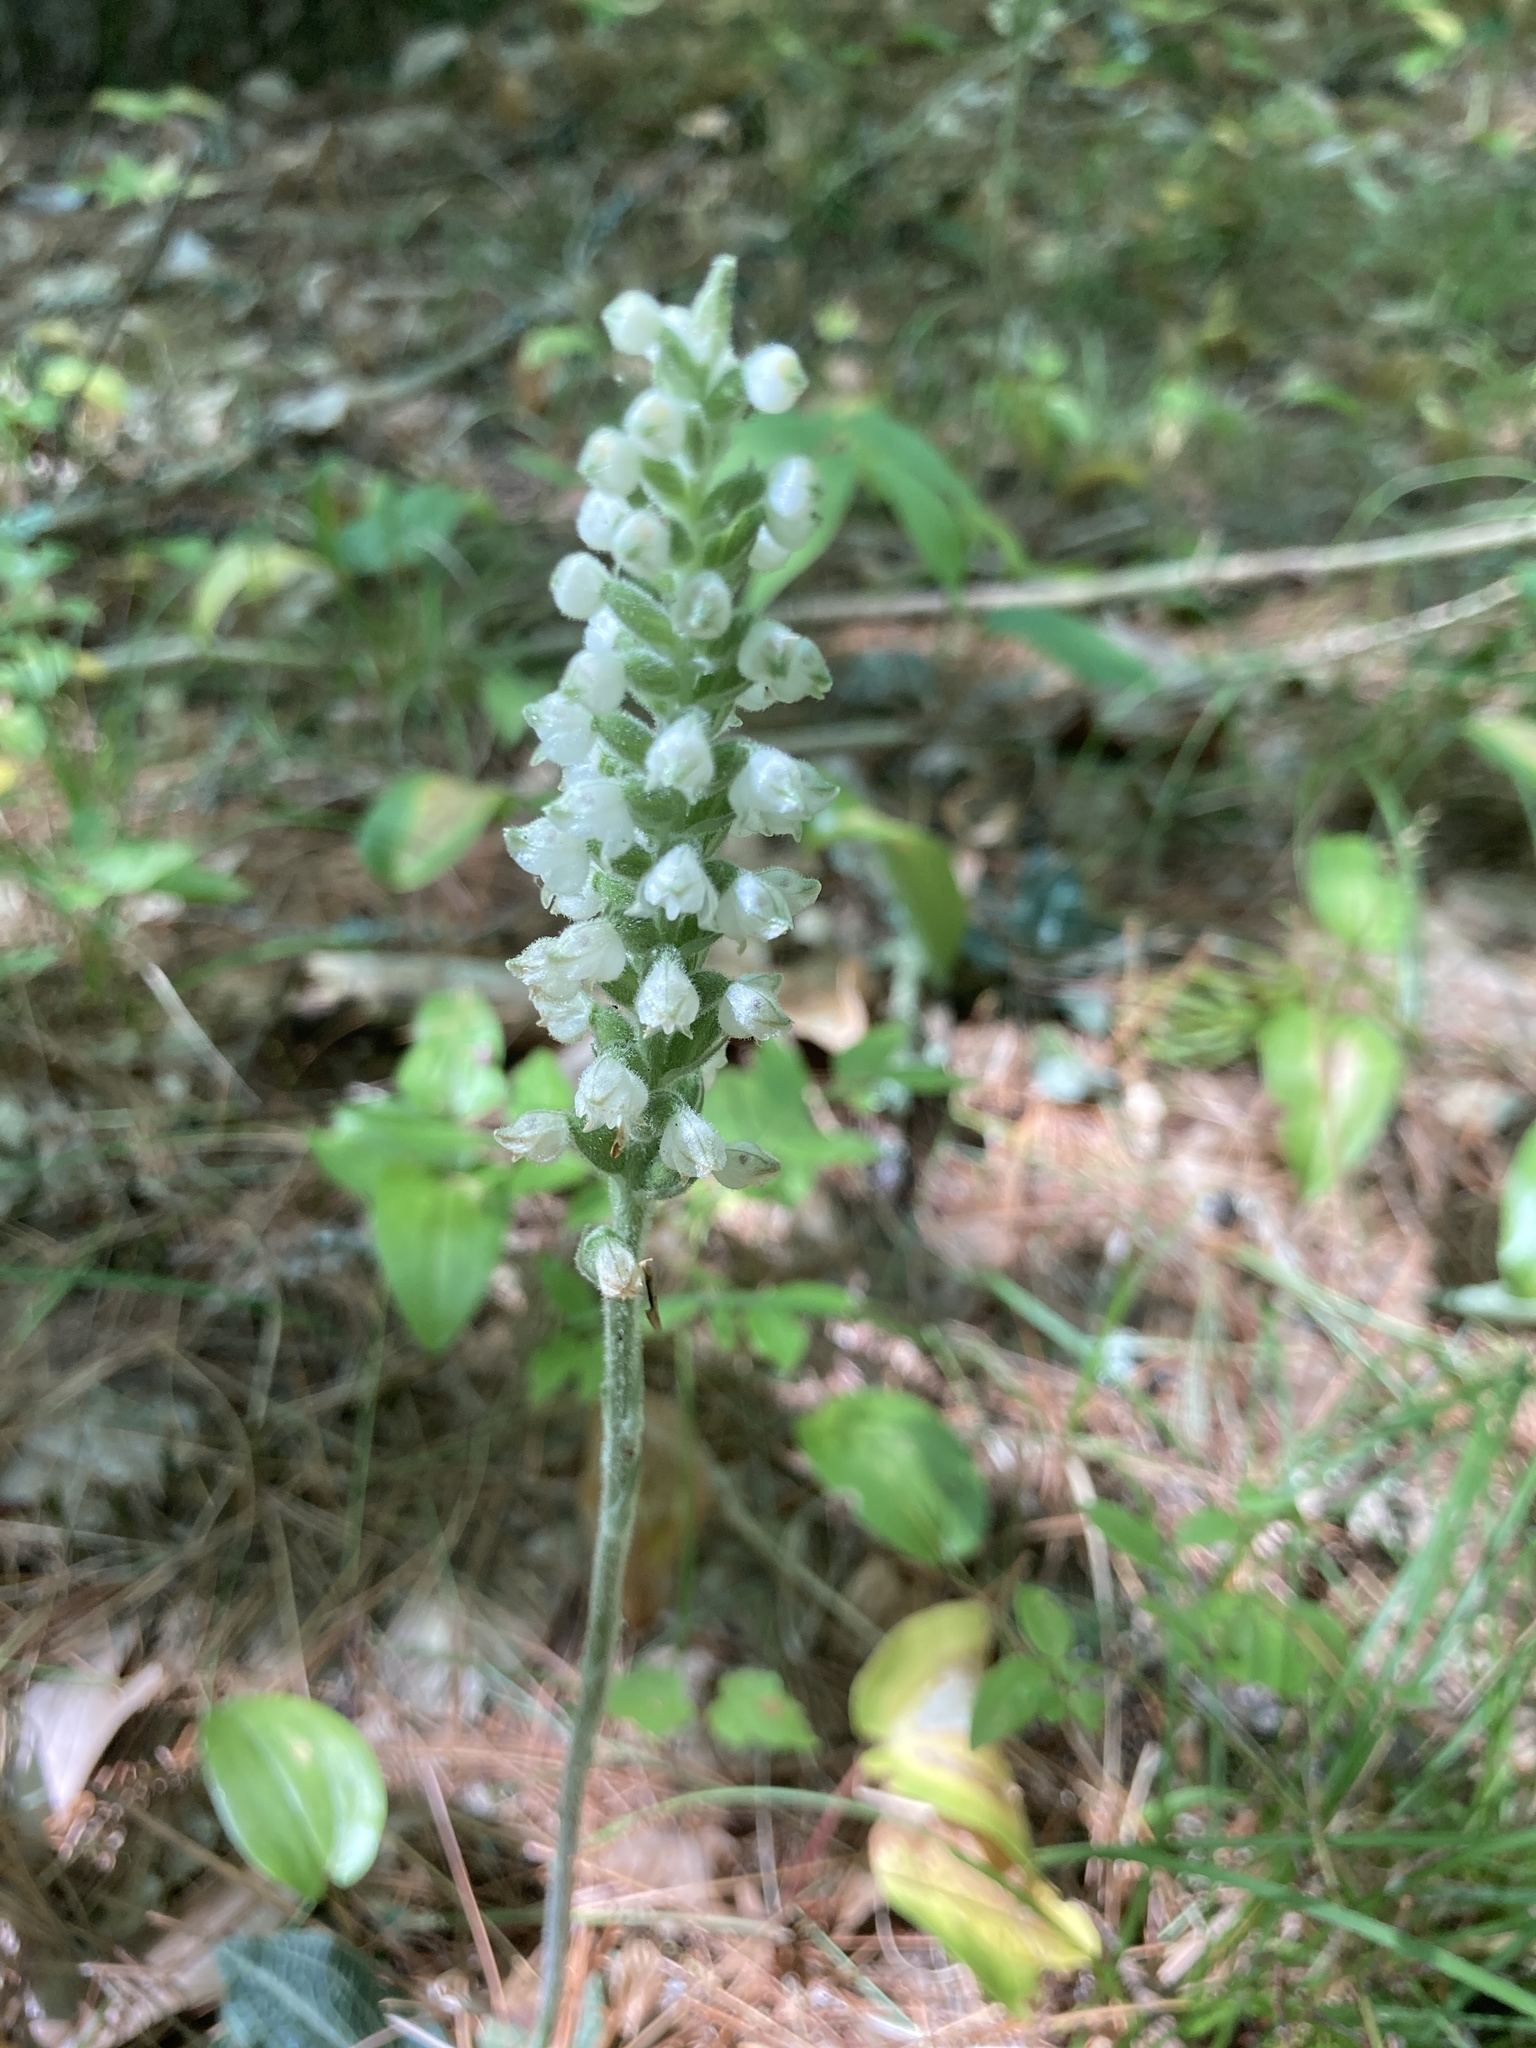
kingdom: Plantae
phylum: Tracheophyta
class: Liliopsida
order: Asparagales
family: Orchidaceae
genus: Goodyera
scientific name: Goodyera pubescens
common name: Downy rattlesnake-plantain
